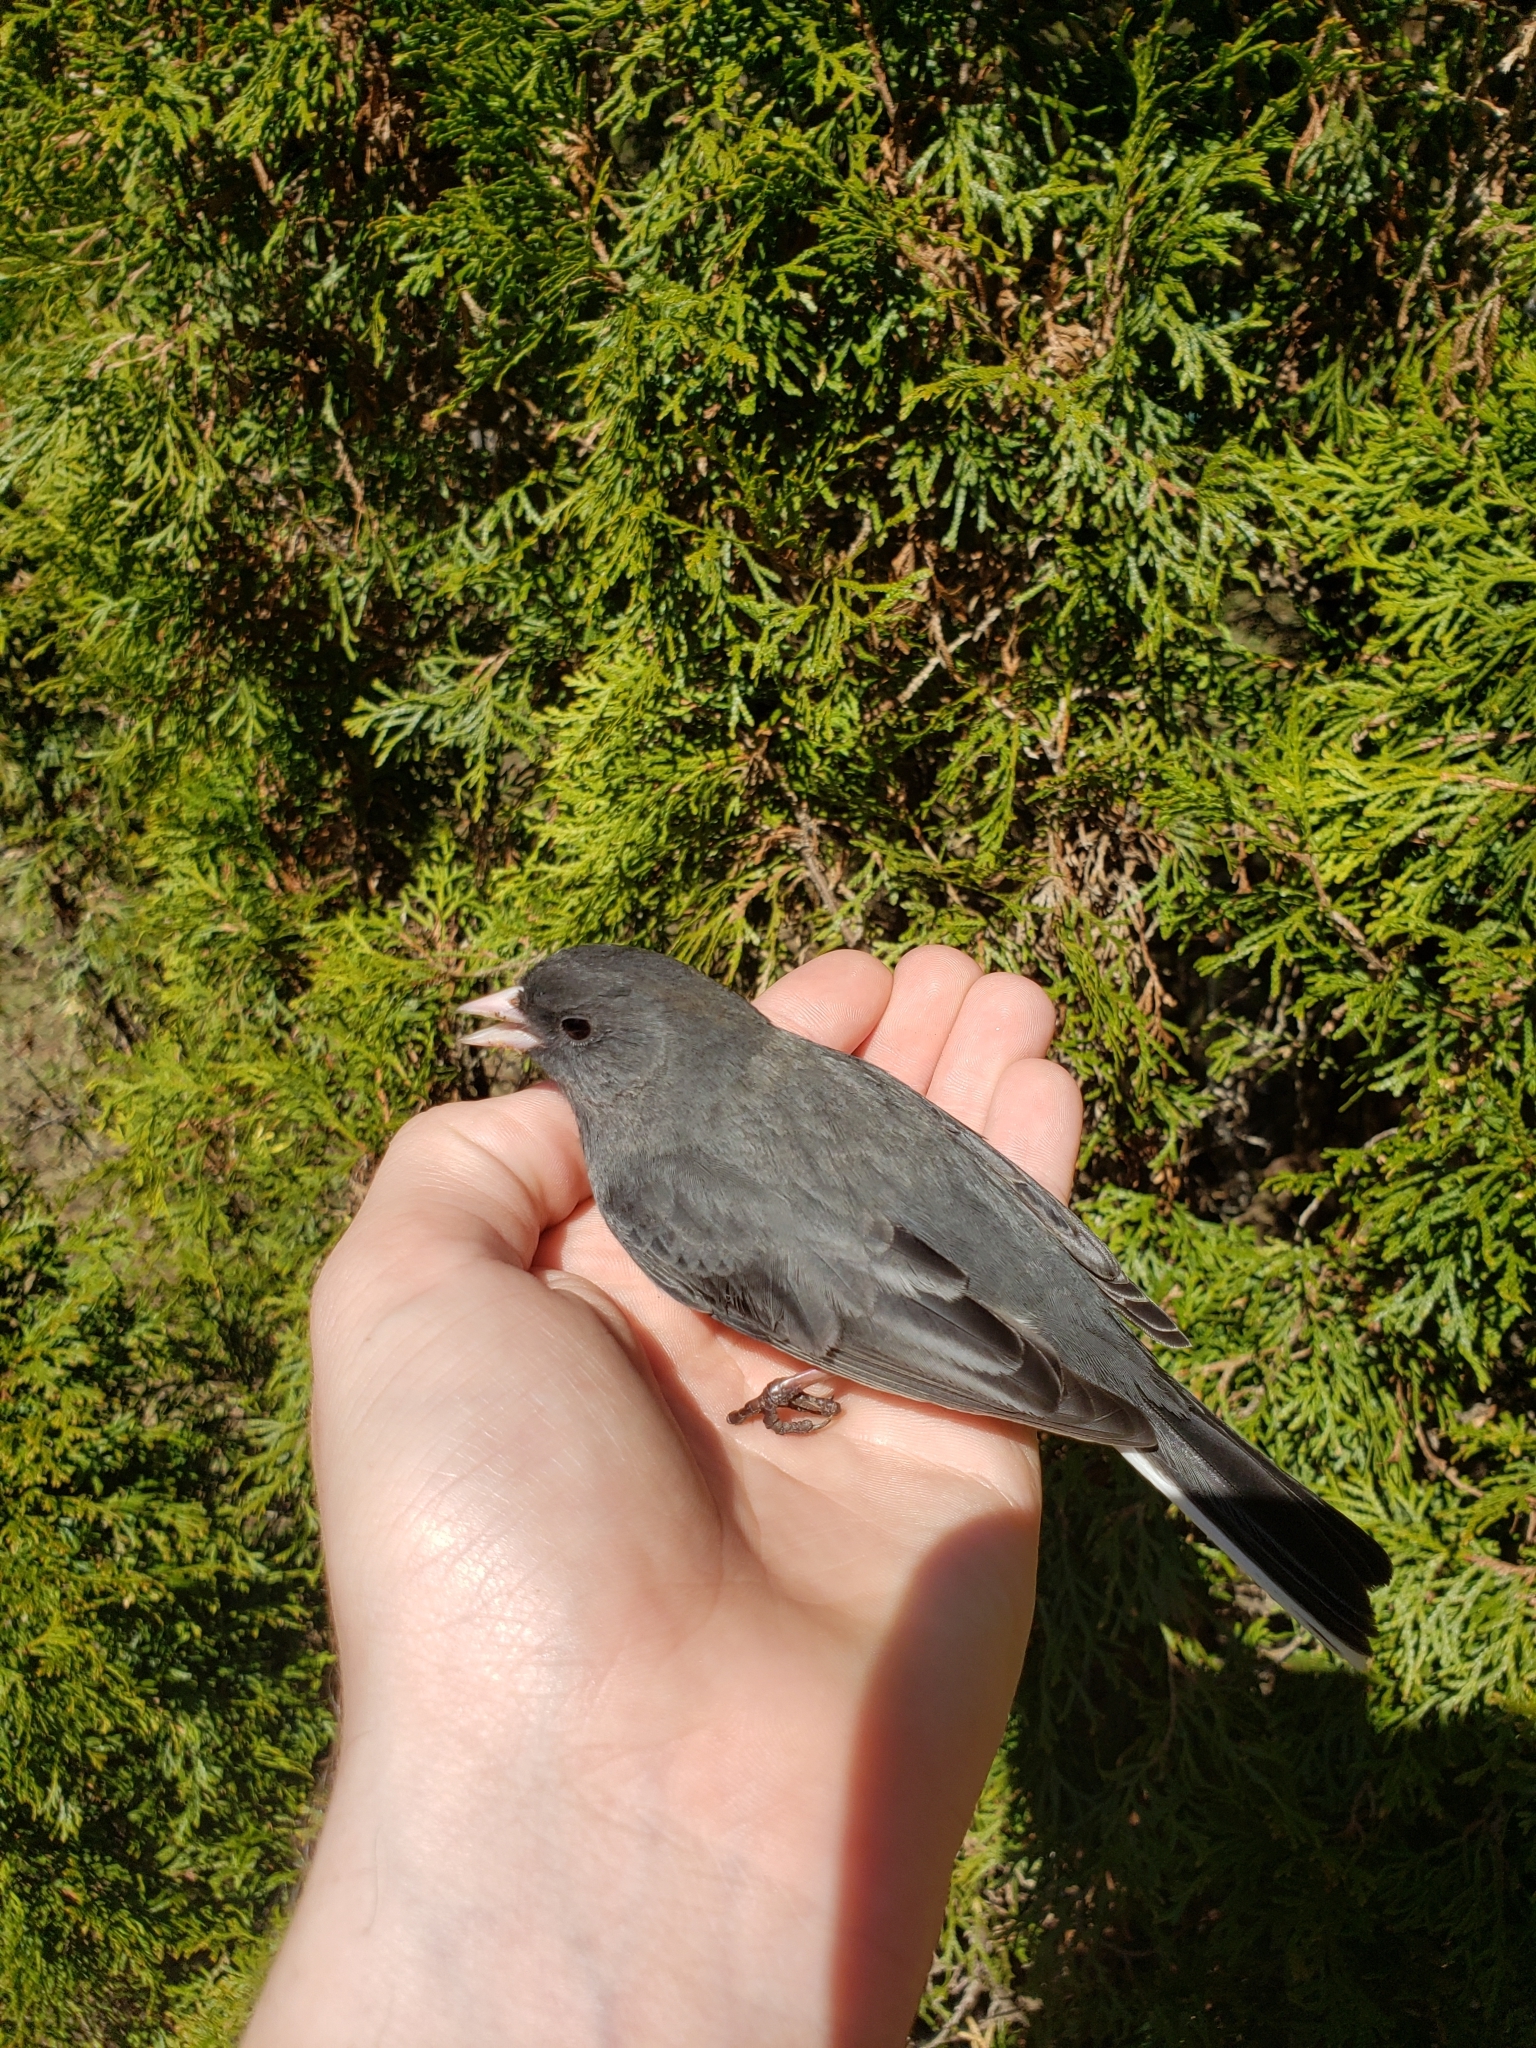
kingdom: Animalia
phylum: Chordata
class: Aves
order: Passeriformes
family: Passerellidae
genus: Junco
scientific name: Junco hyemalis
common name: Dark-eyed junco
